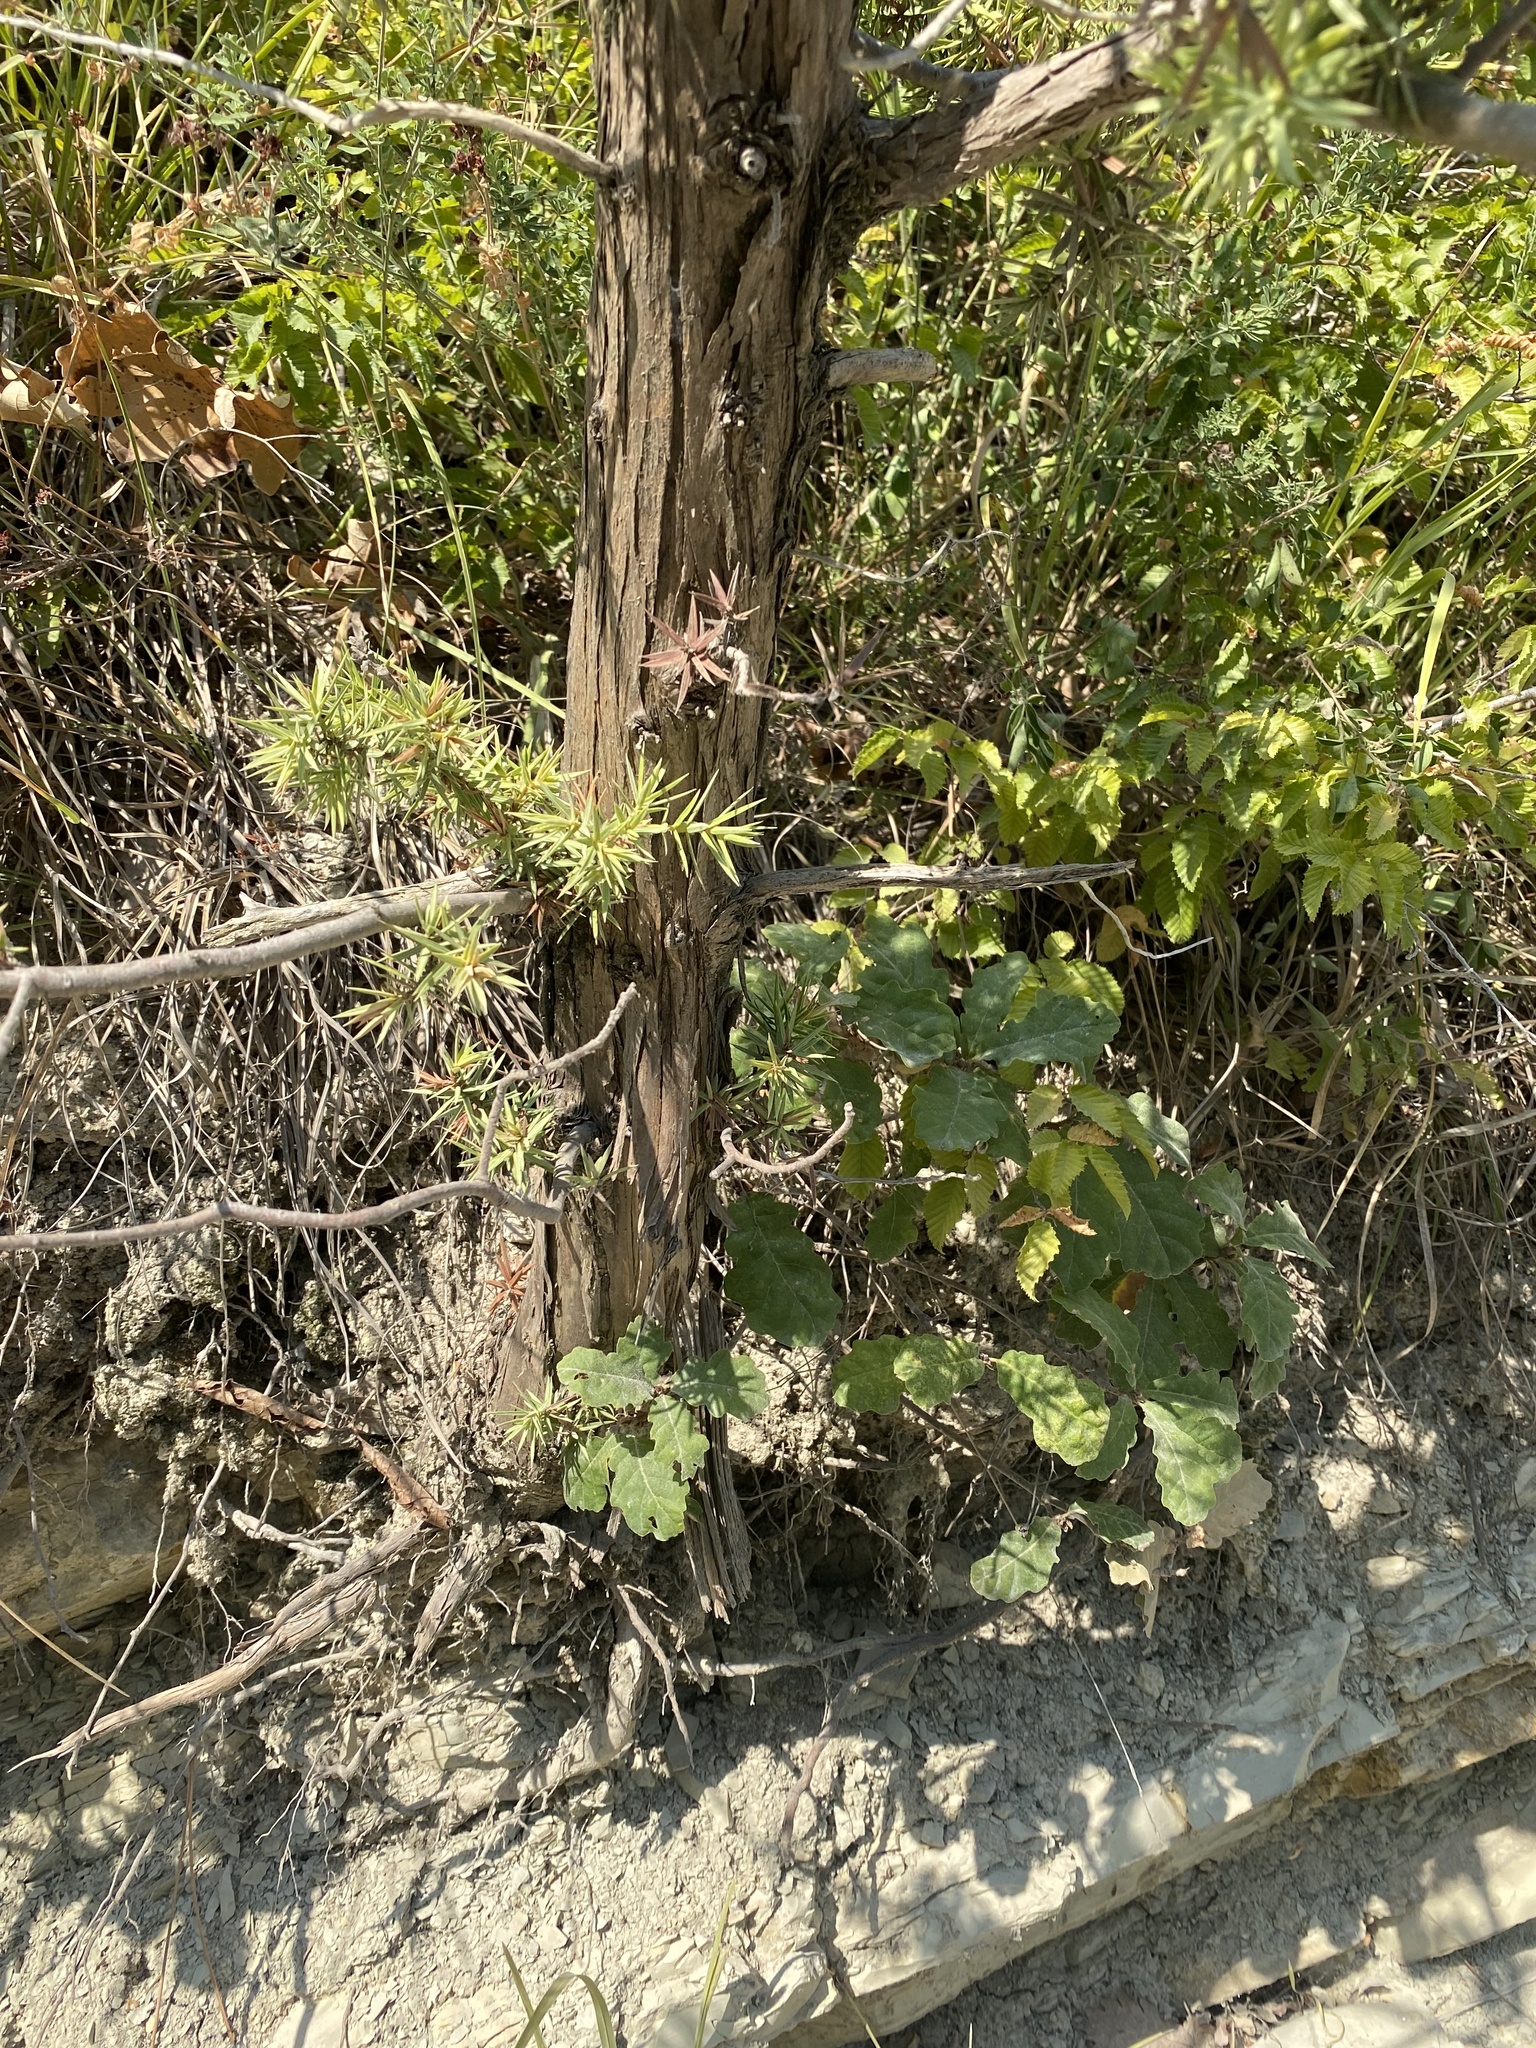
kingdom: Plantae
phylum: Tracheophyta
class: Pinopsida
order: Pinales
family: Cupressaceae
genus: Juniperus
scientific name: Juniperus oxycedrus
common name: Prickly juniper
